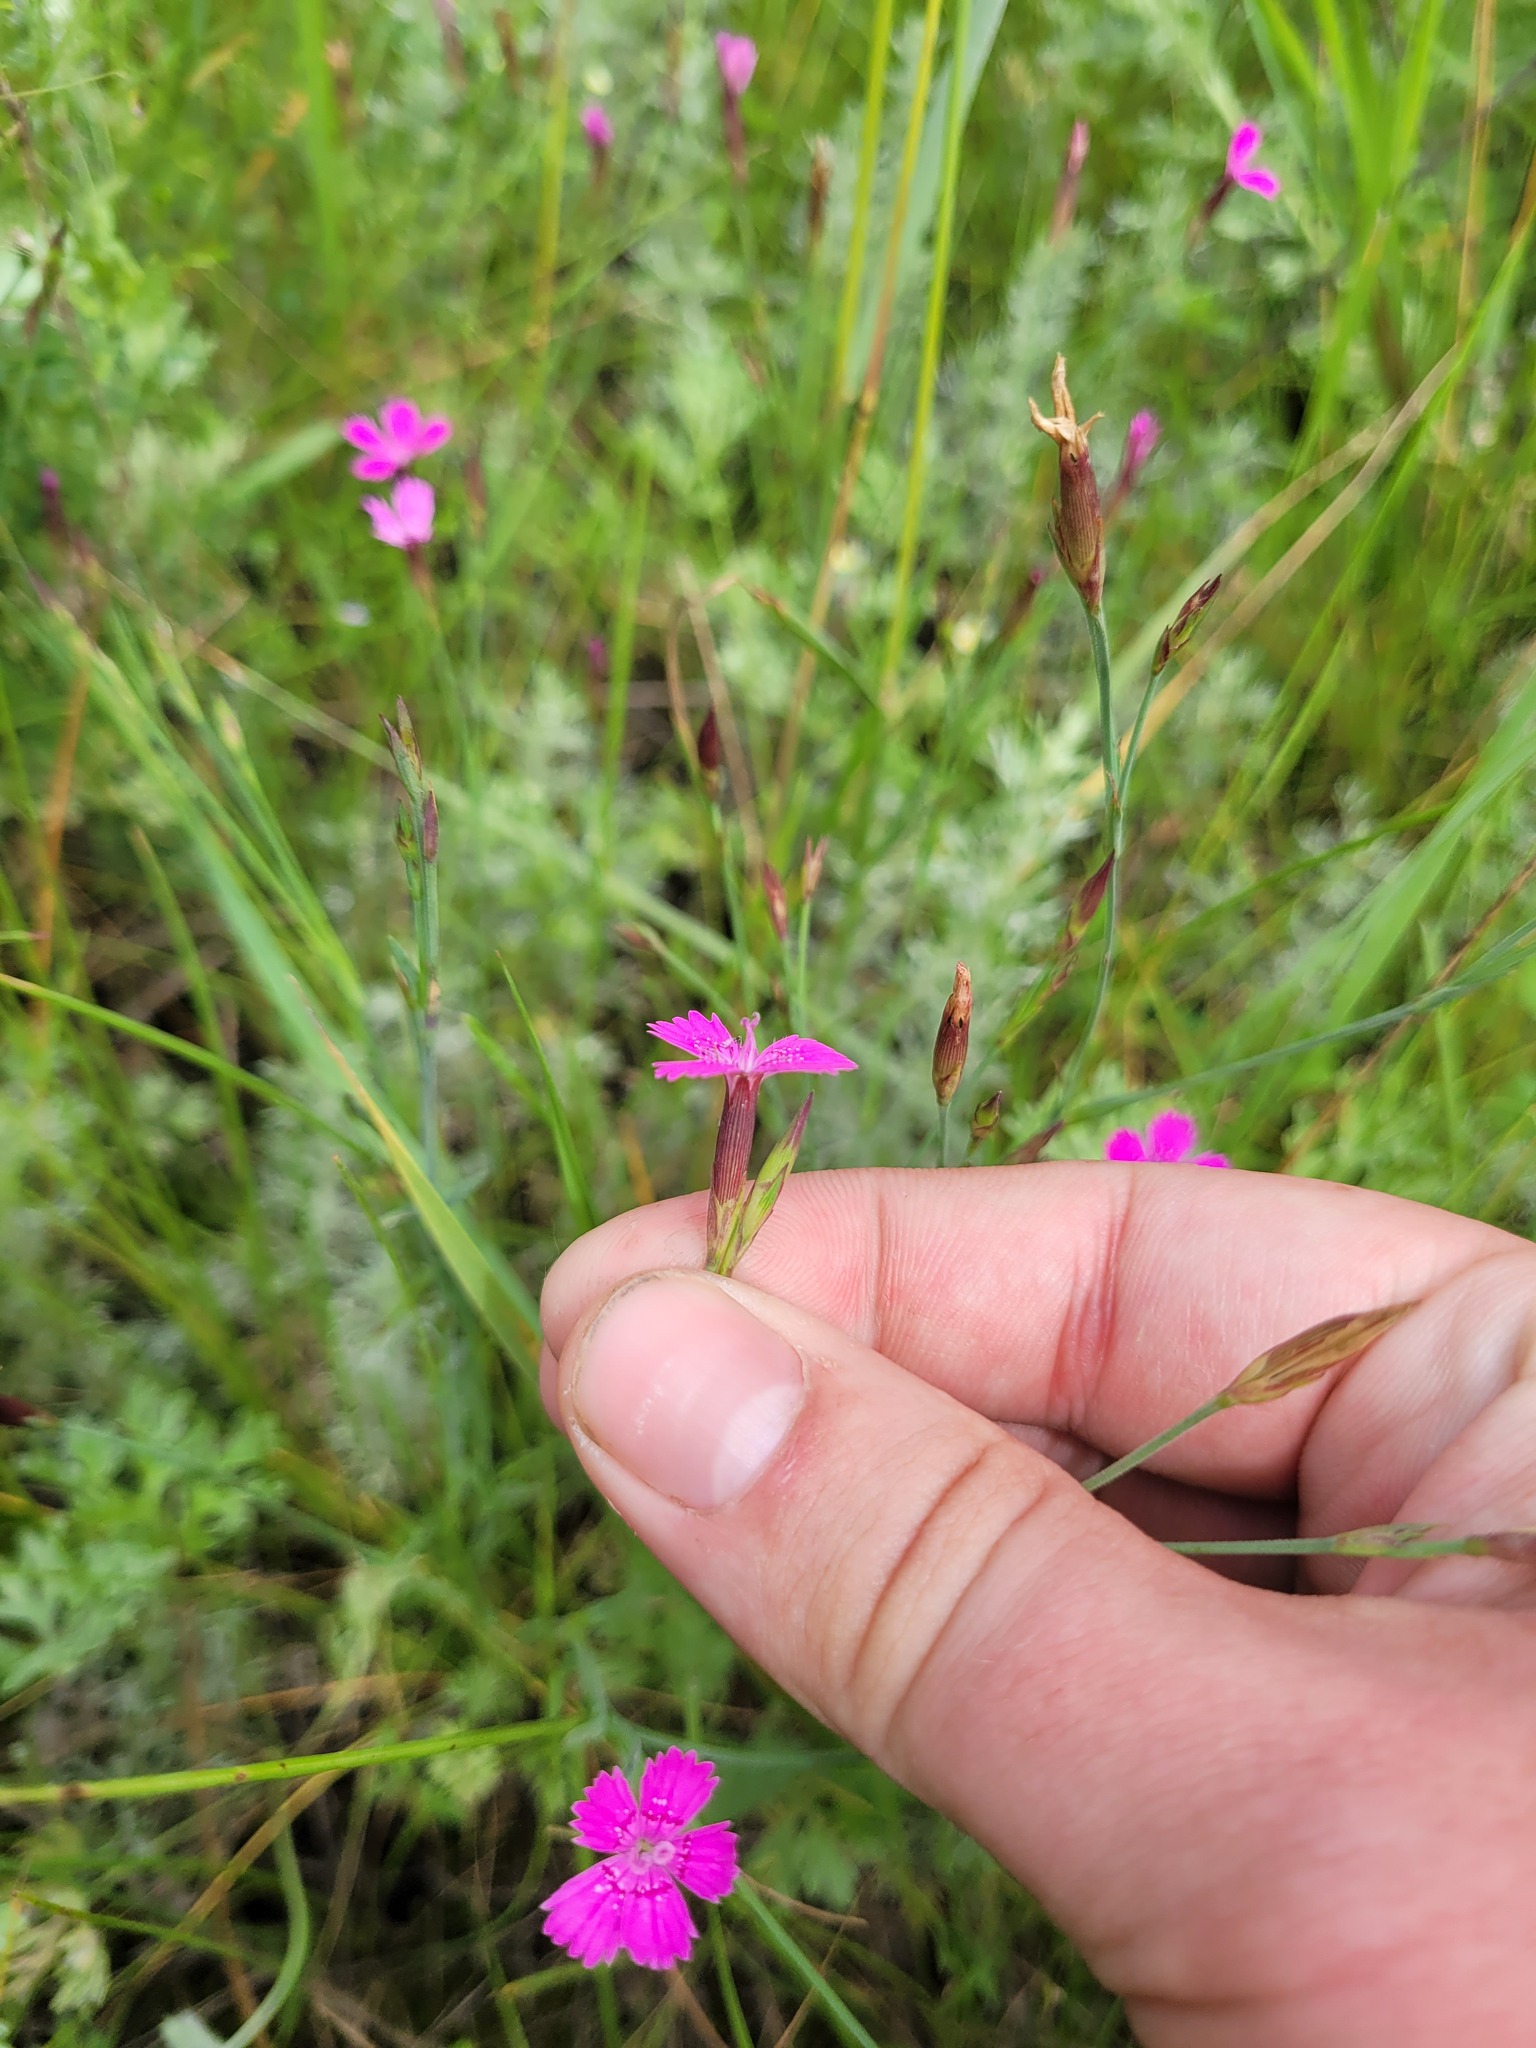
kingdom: Plantae
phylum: Tracheophyta
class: Magnoliopsida
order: Caryophyllales
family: Caryophyllaceae
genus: Dianthus
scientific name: Dianthus deltoides
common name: Maiden pink
